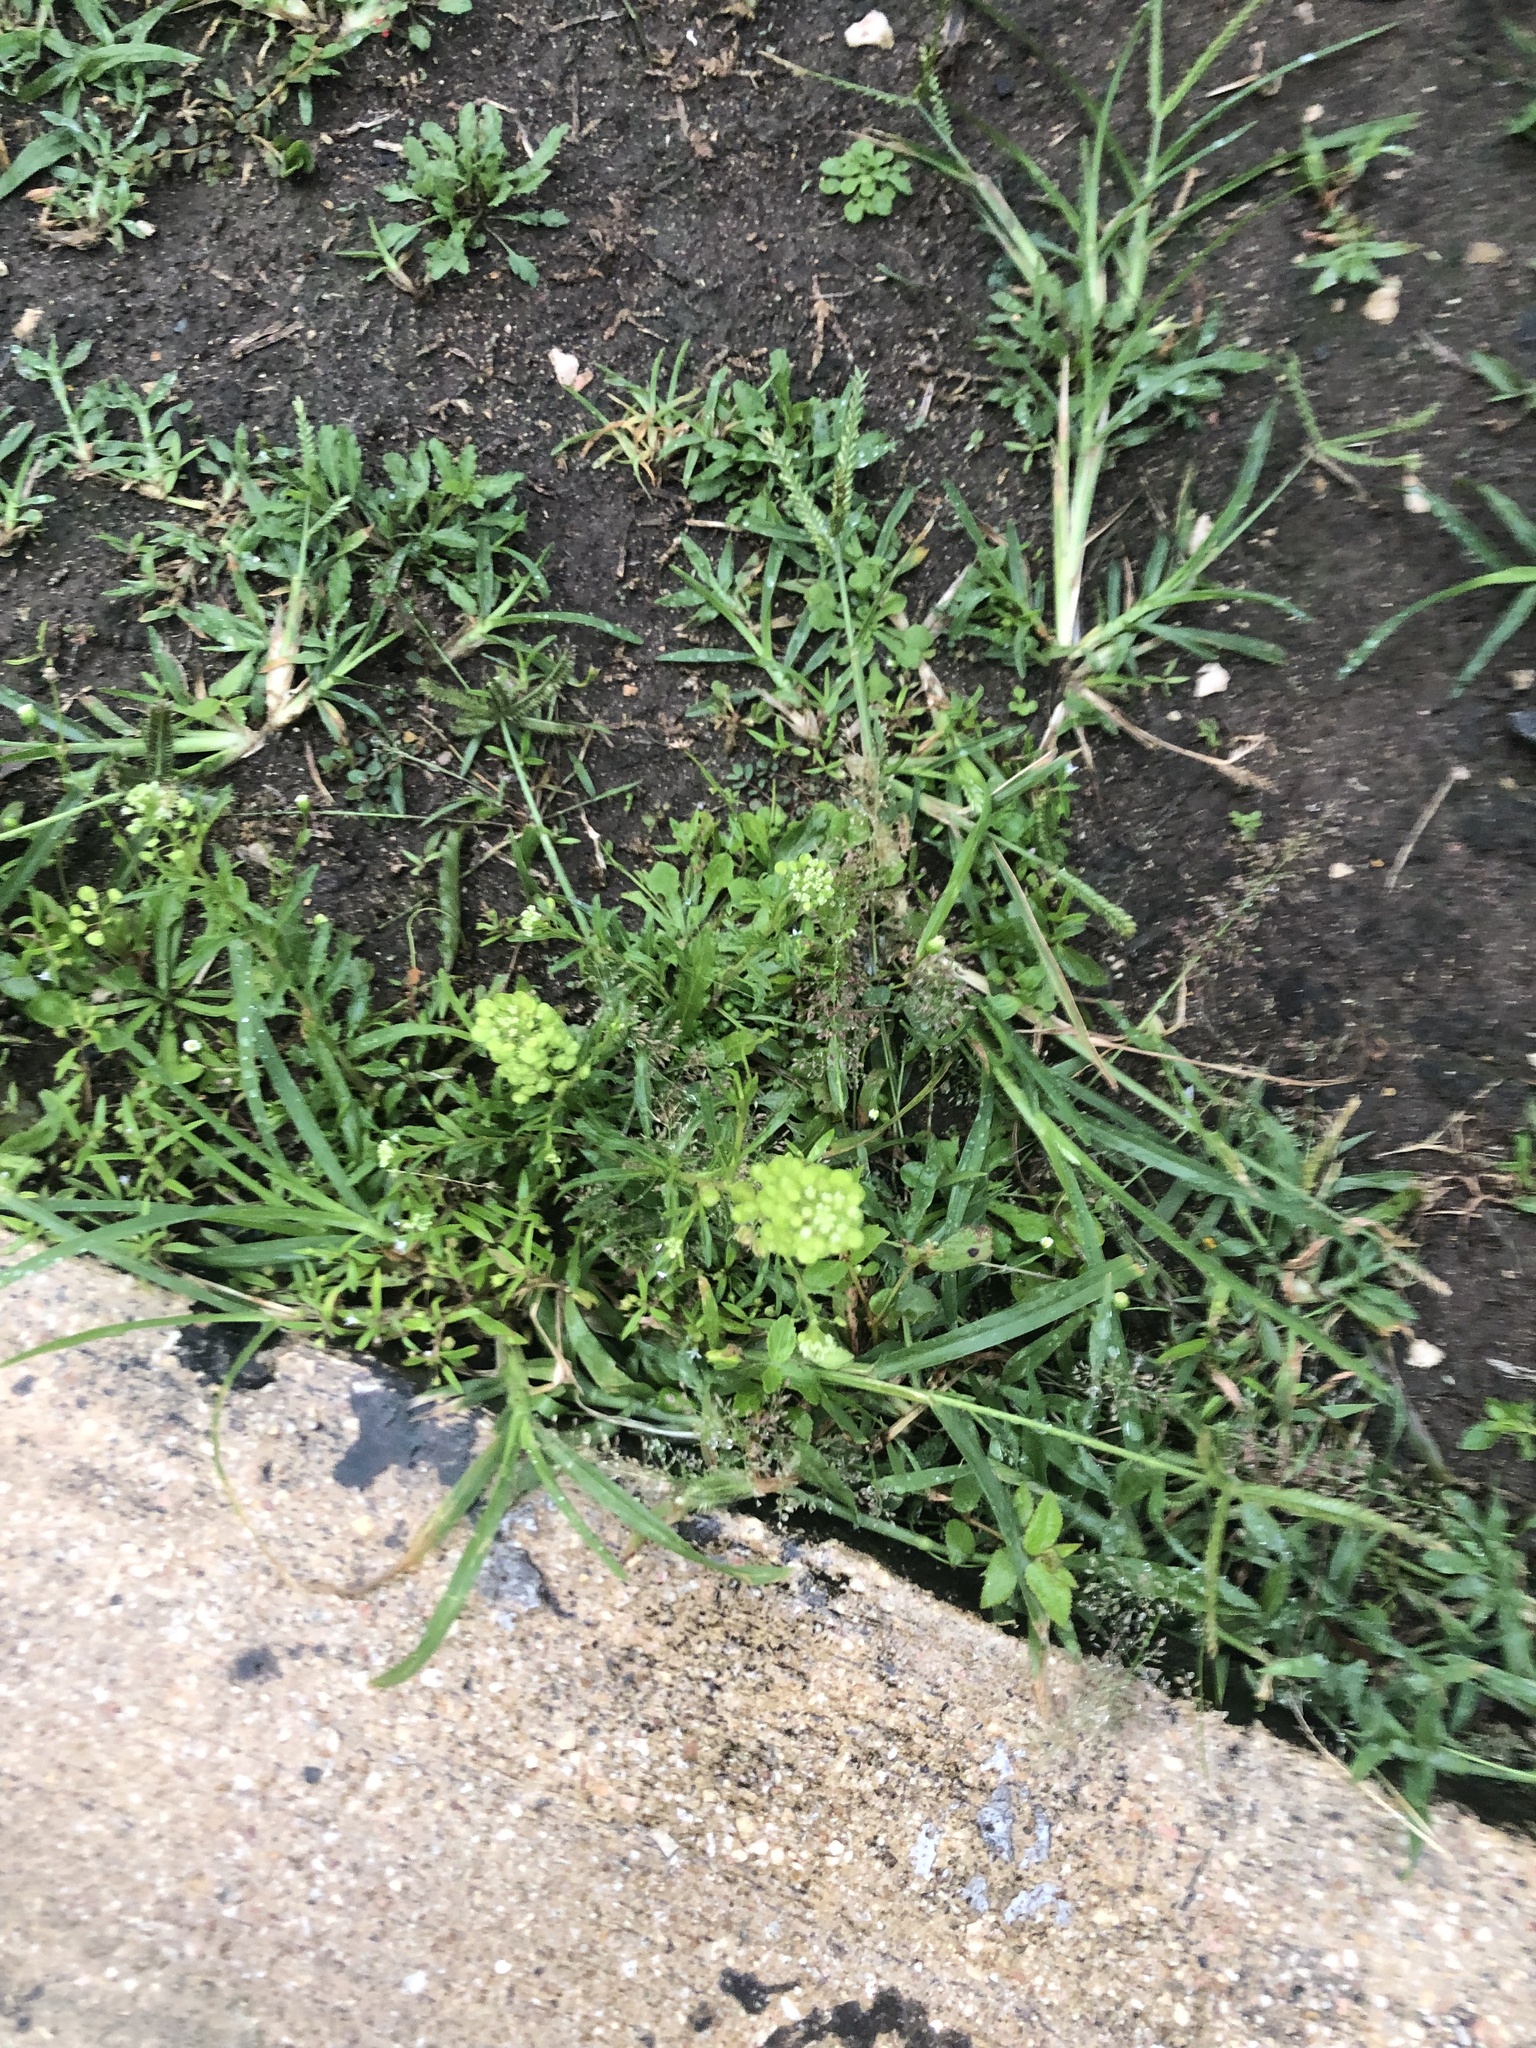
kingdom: Plantae
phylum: Tracheophyta
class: Magnoliopsida
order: Brassicales
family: Brassicaceae
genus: Lepidium
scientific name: Lepidium virginicum
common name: Least pepperwort
